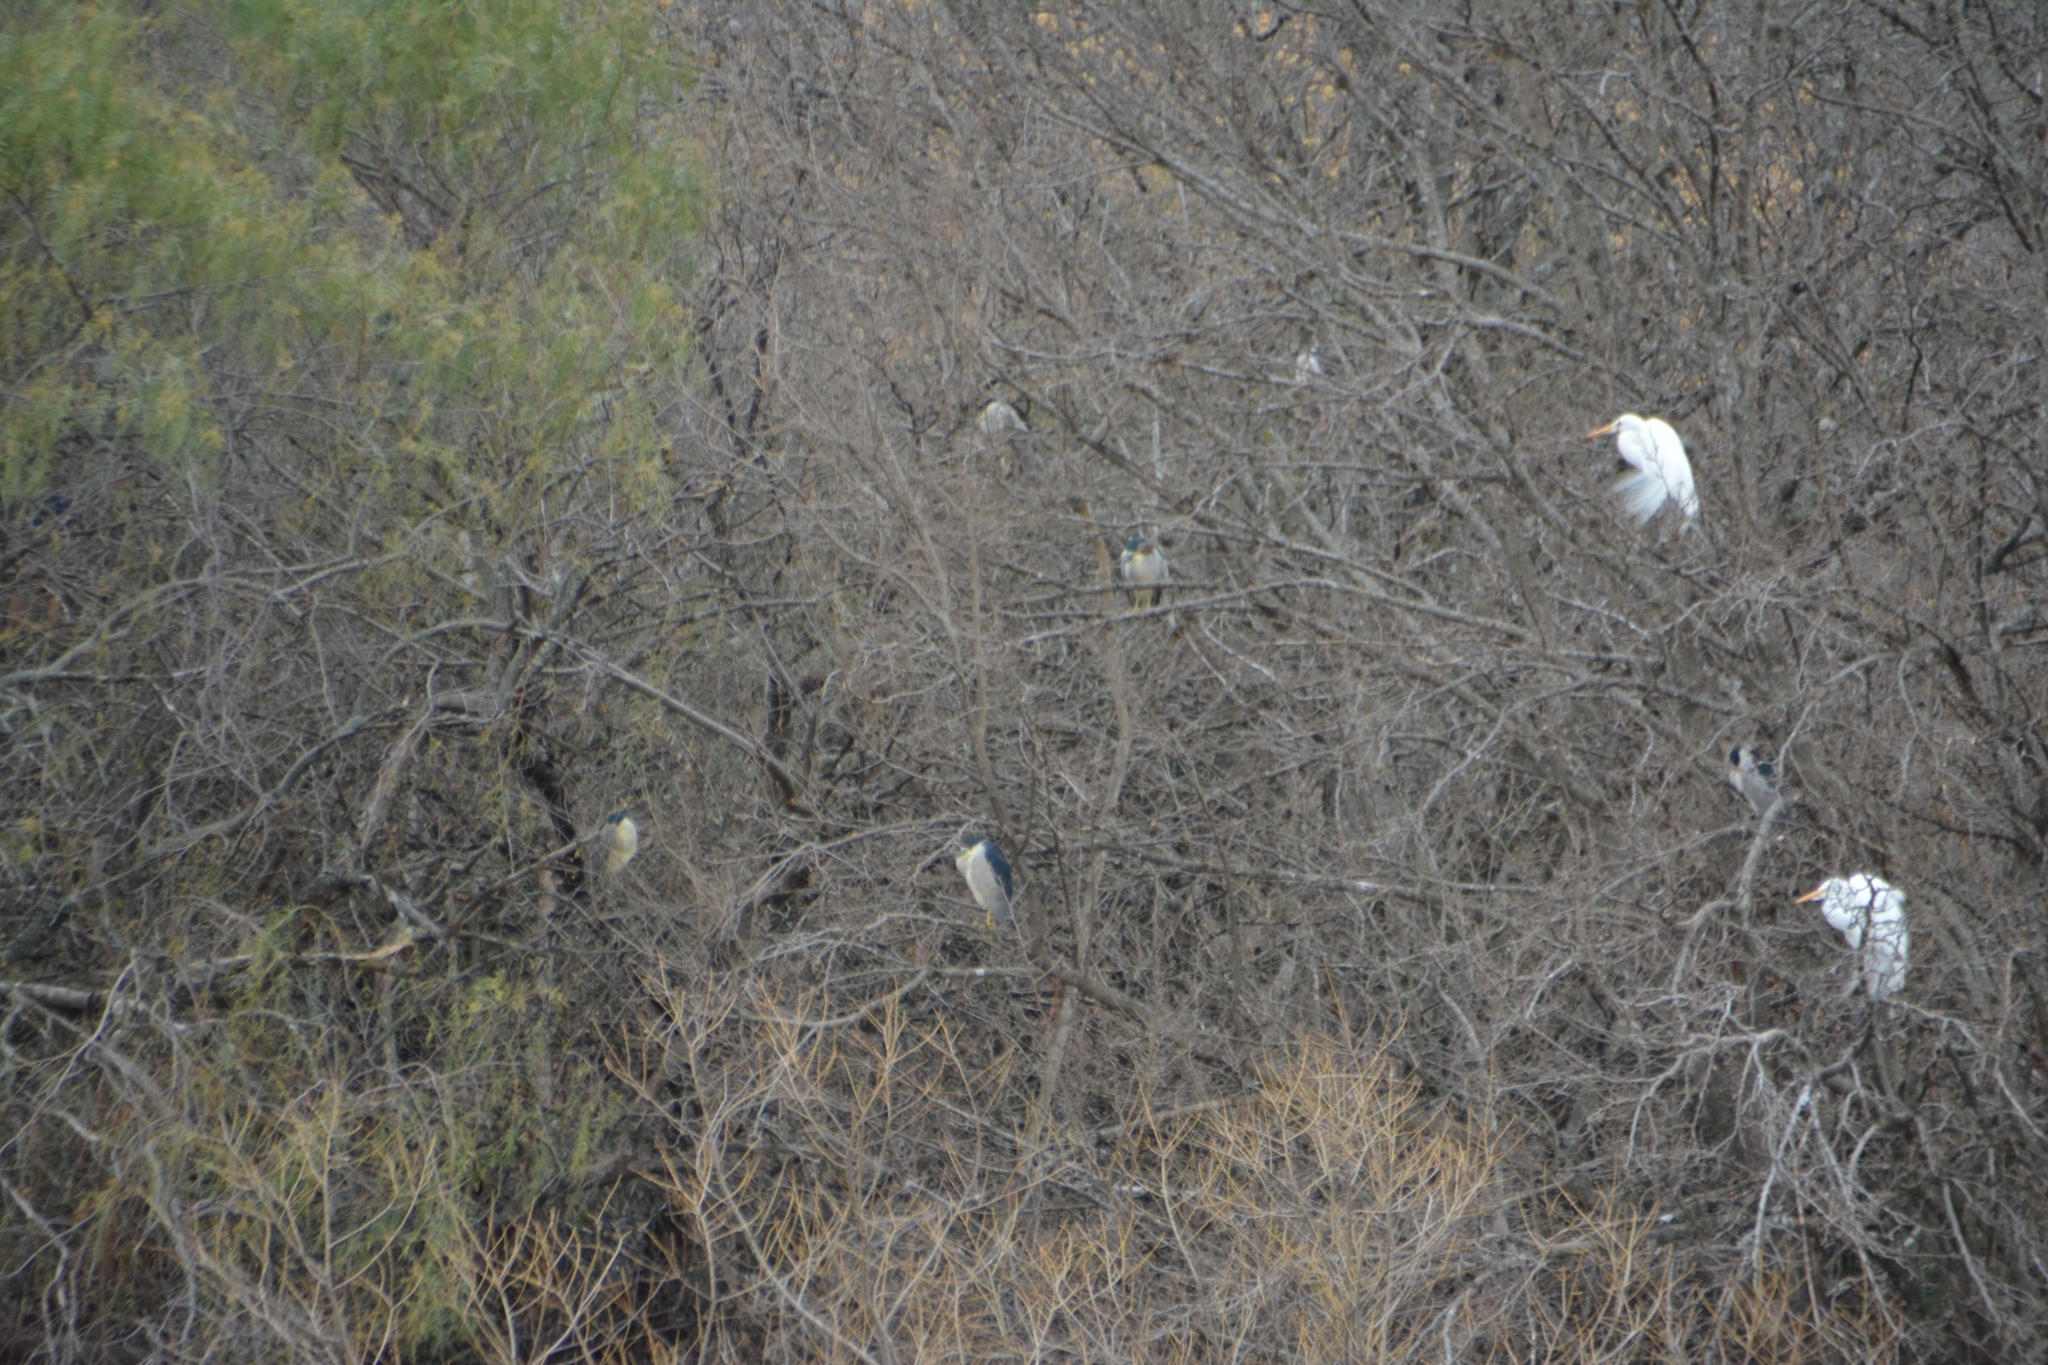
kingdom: Animalia
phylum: Chordata
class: Aves
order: Pelecaniformes
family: Ardeidae
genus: Nycticorax
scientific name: Nycticorax nycticorax
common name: Black-crowned night heron
